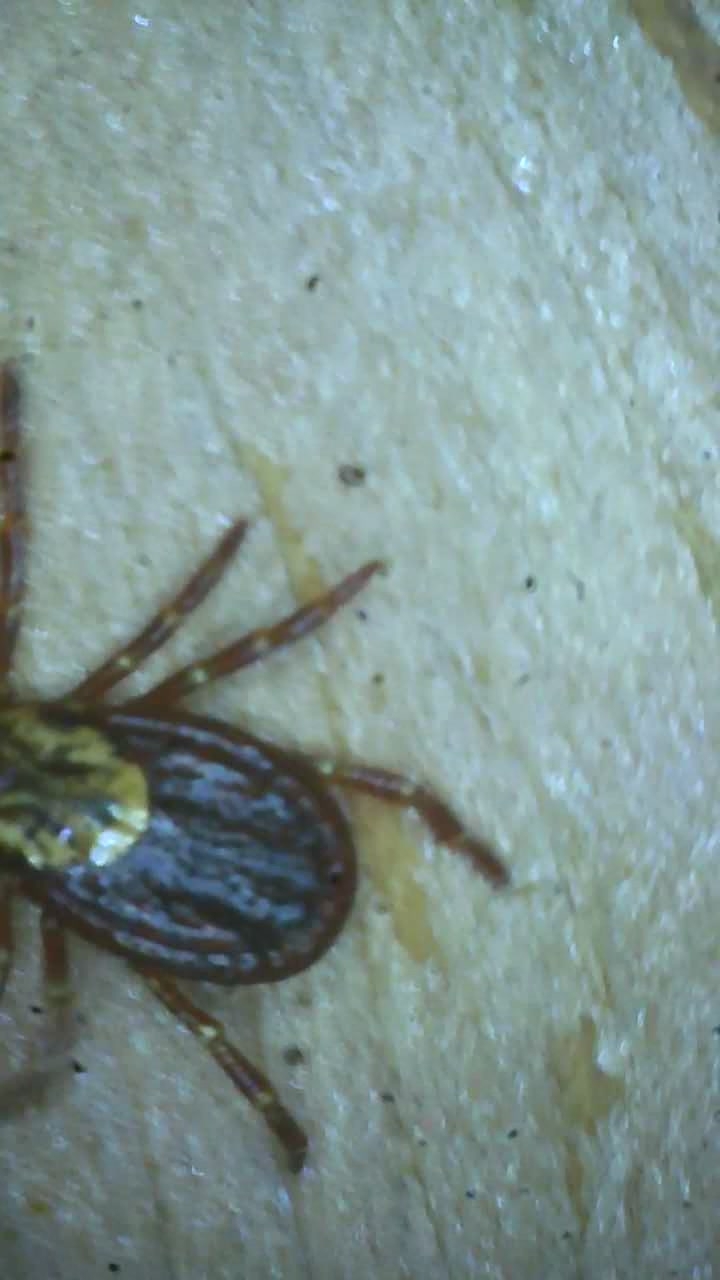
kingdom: Animalia
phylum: Arthropoda
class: Arachnida
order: Ixodida
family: Ixodidae
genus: Dermacentor
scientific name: Dermacentor variabilis
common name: American dog tick
